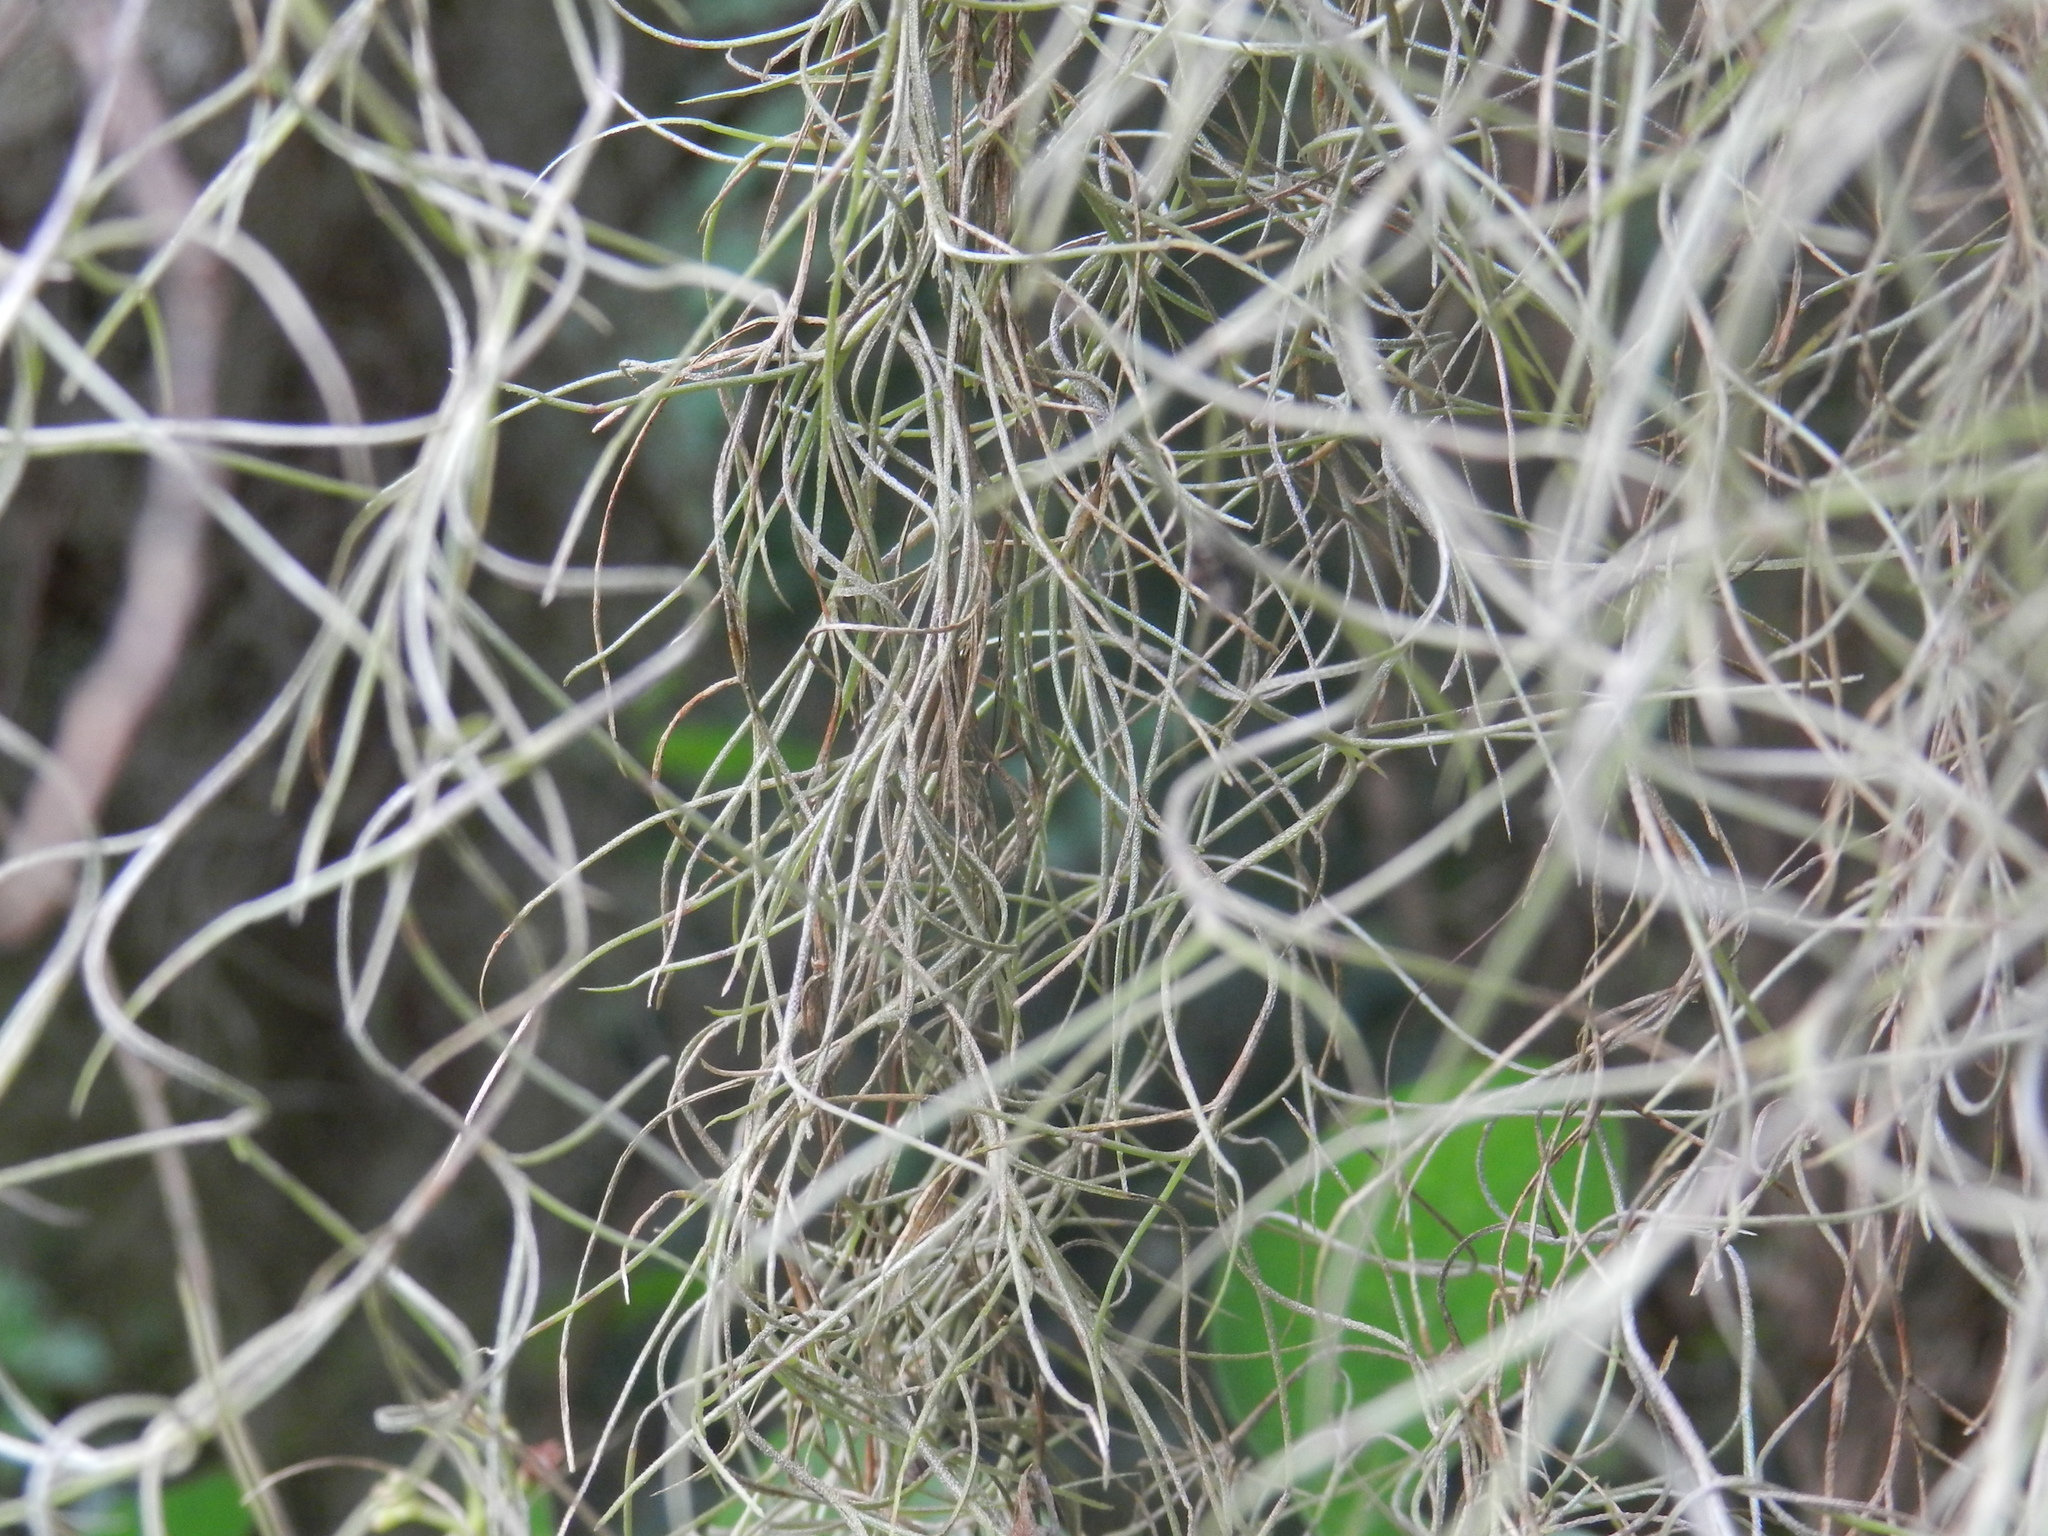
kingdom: Plantae
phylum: Tracheophyta
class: Liliopsida
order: Poales
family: Bromeliaceae
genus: Tillandsia
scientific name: Tillandsia usneoides
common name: Spanish moss
